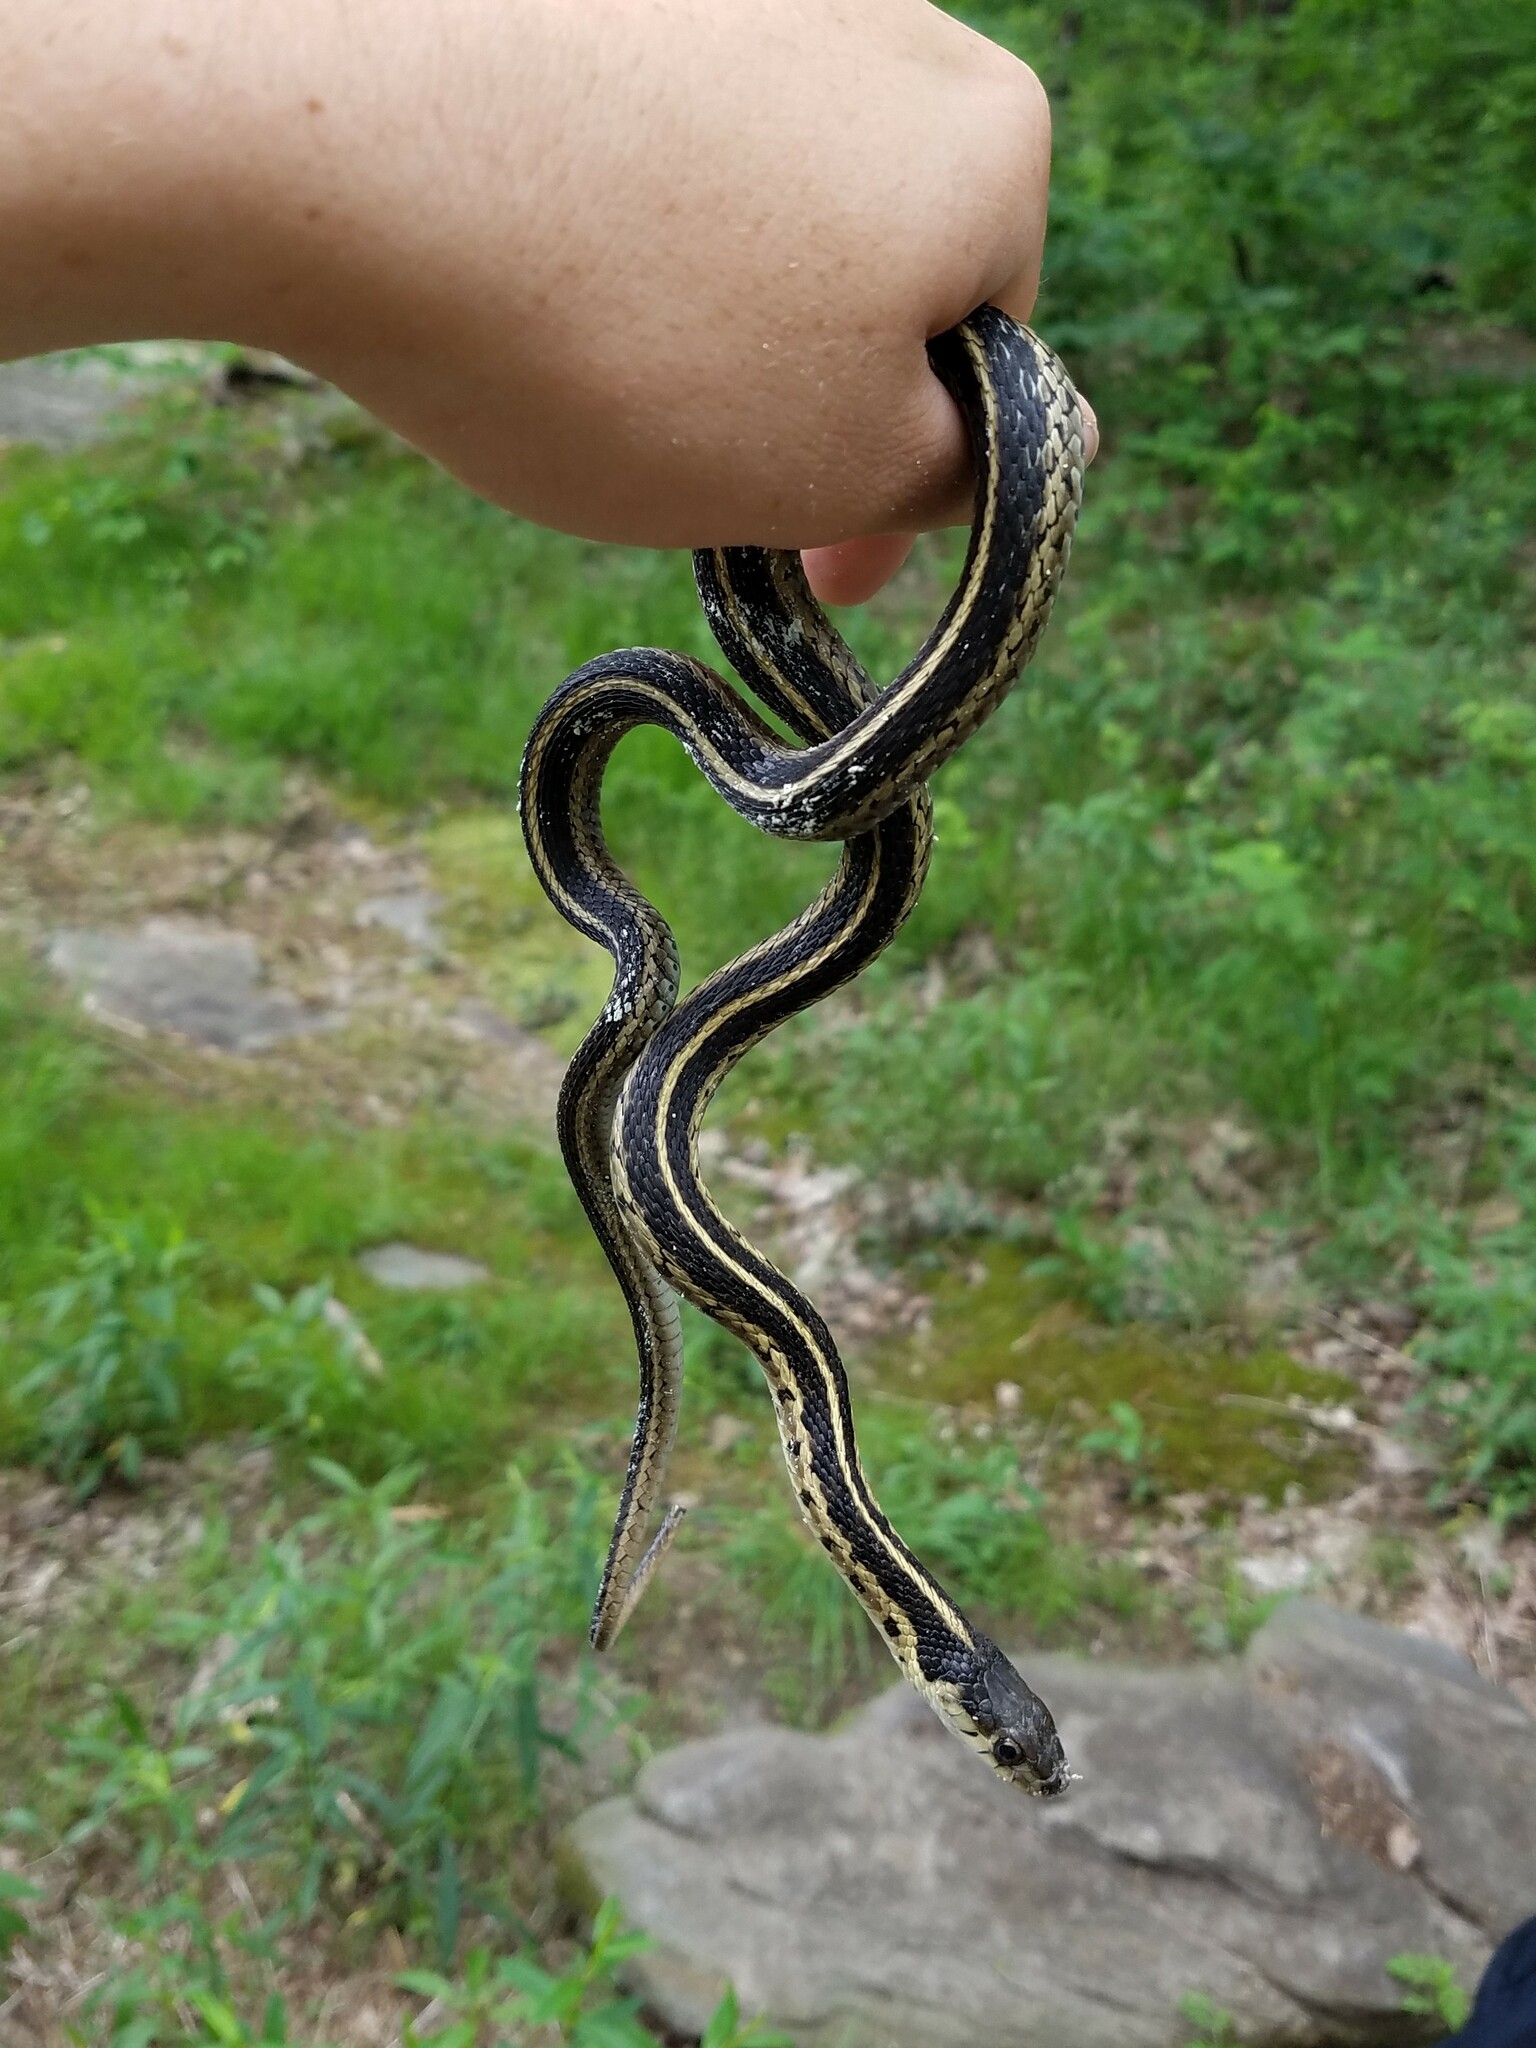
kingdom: Animalia
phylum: Chordata
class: Squamata
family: Colubridae
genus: Thamnophis
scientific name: Thamnophis sirtalis
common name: Common garter snake
